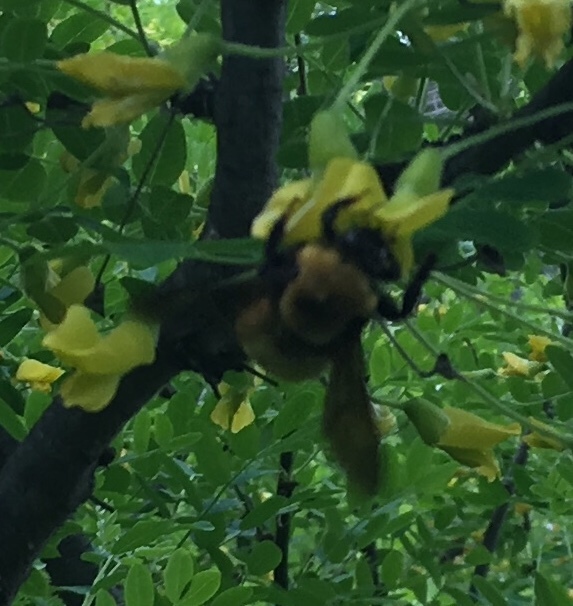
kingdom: Animalia
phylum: Arthropoda
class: Insecta
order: Hymenoptera
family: Apidae
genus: Bombus
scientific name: Bombus nevadensis
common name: Nevada bumble bee
